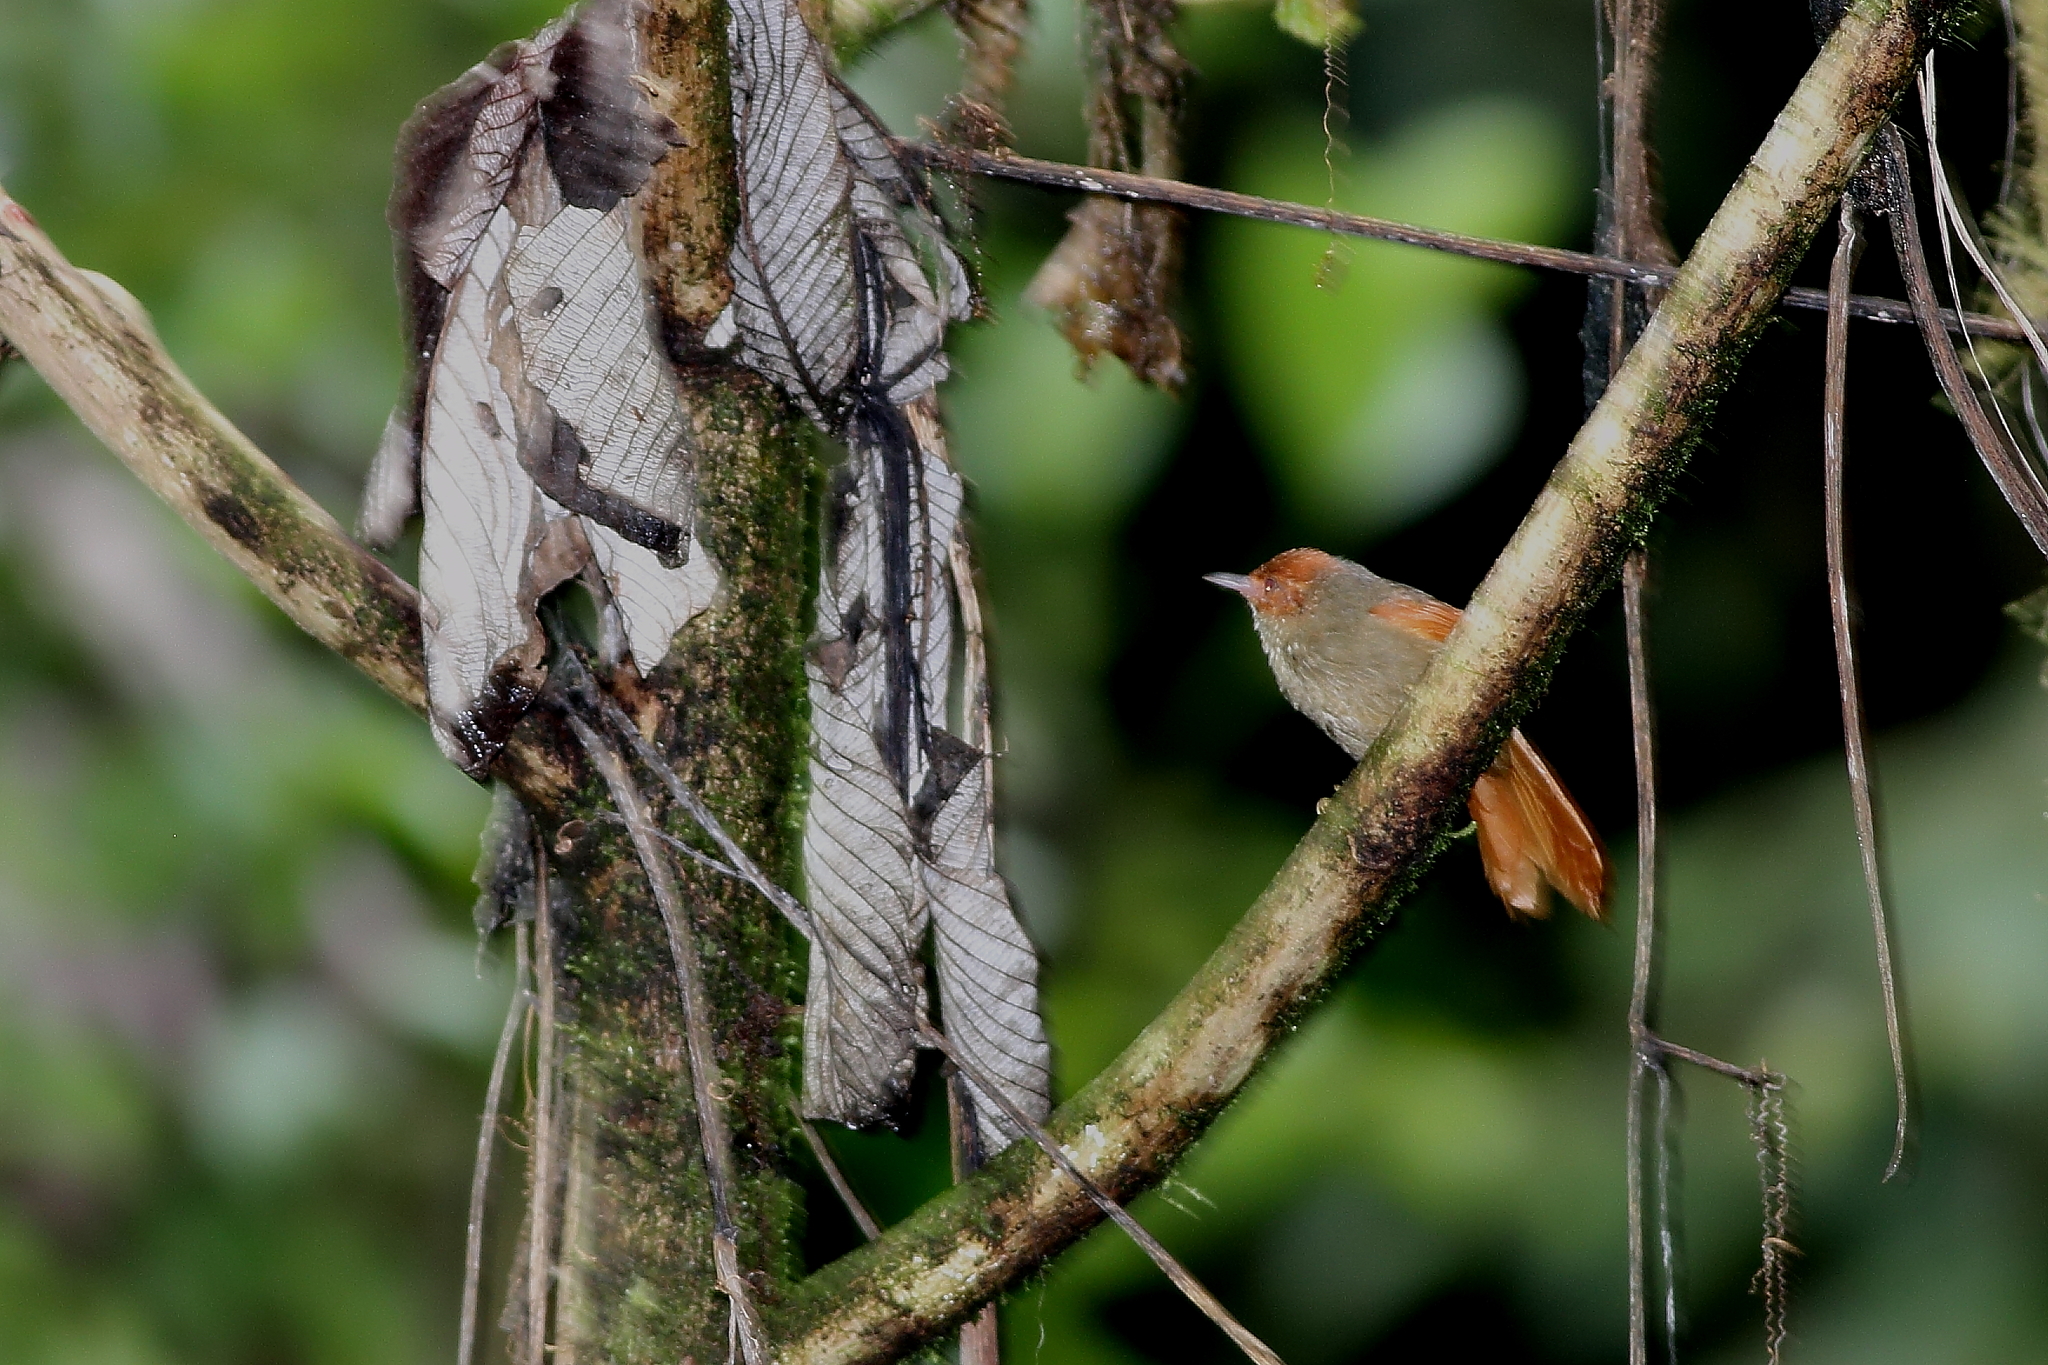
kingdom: Animalia
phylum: Chordata
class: Aves
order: Passeriformes
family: Furnariidae
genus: Cranioleuca
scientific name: Cranioleuca erythrops
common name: Red-faced spinetail
